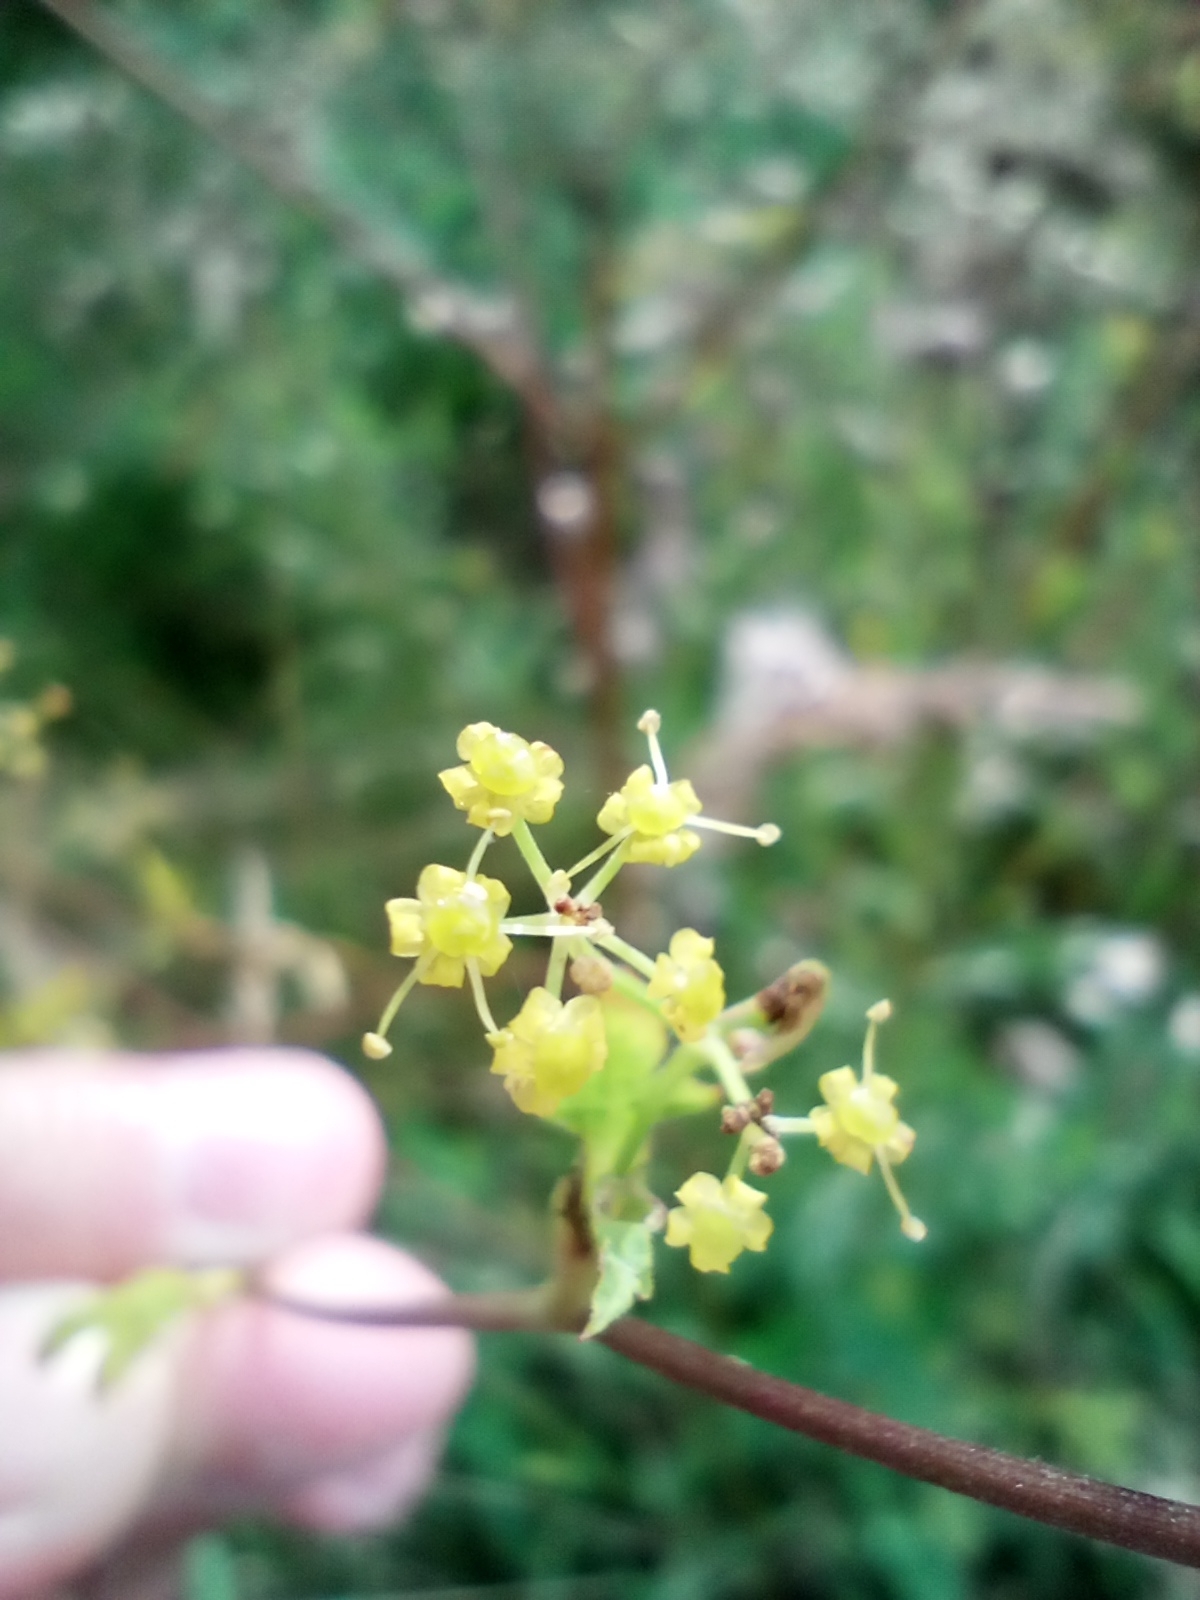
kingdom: Plantae
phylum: Tracheophyta
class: Magnoliopsida
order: Apiales
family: Apiaceae
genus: Pastinaca
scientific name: Pastinaca sativa
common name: Wild parsnip
